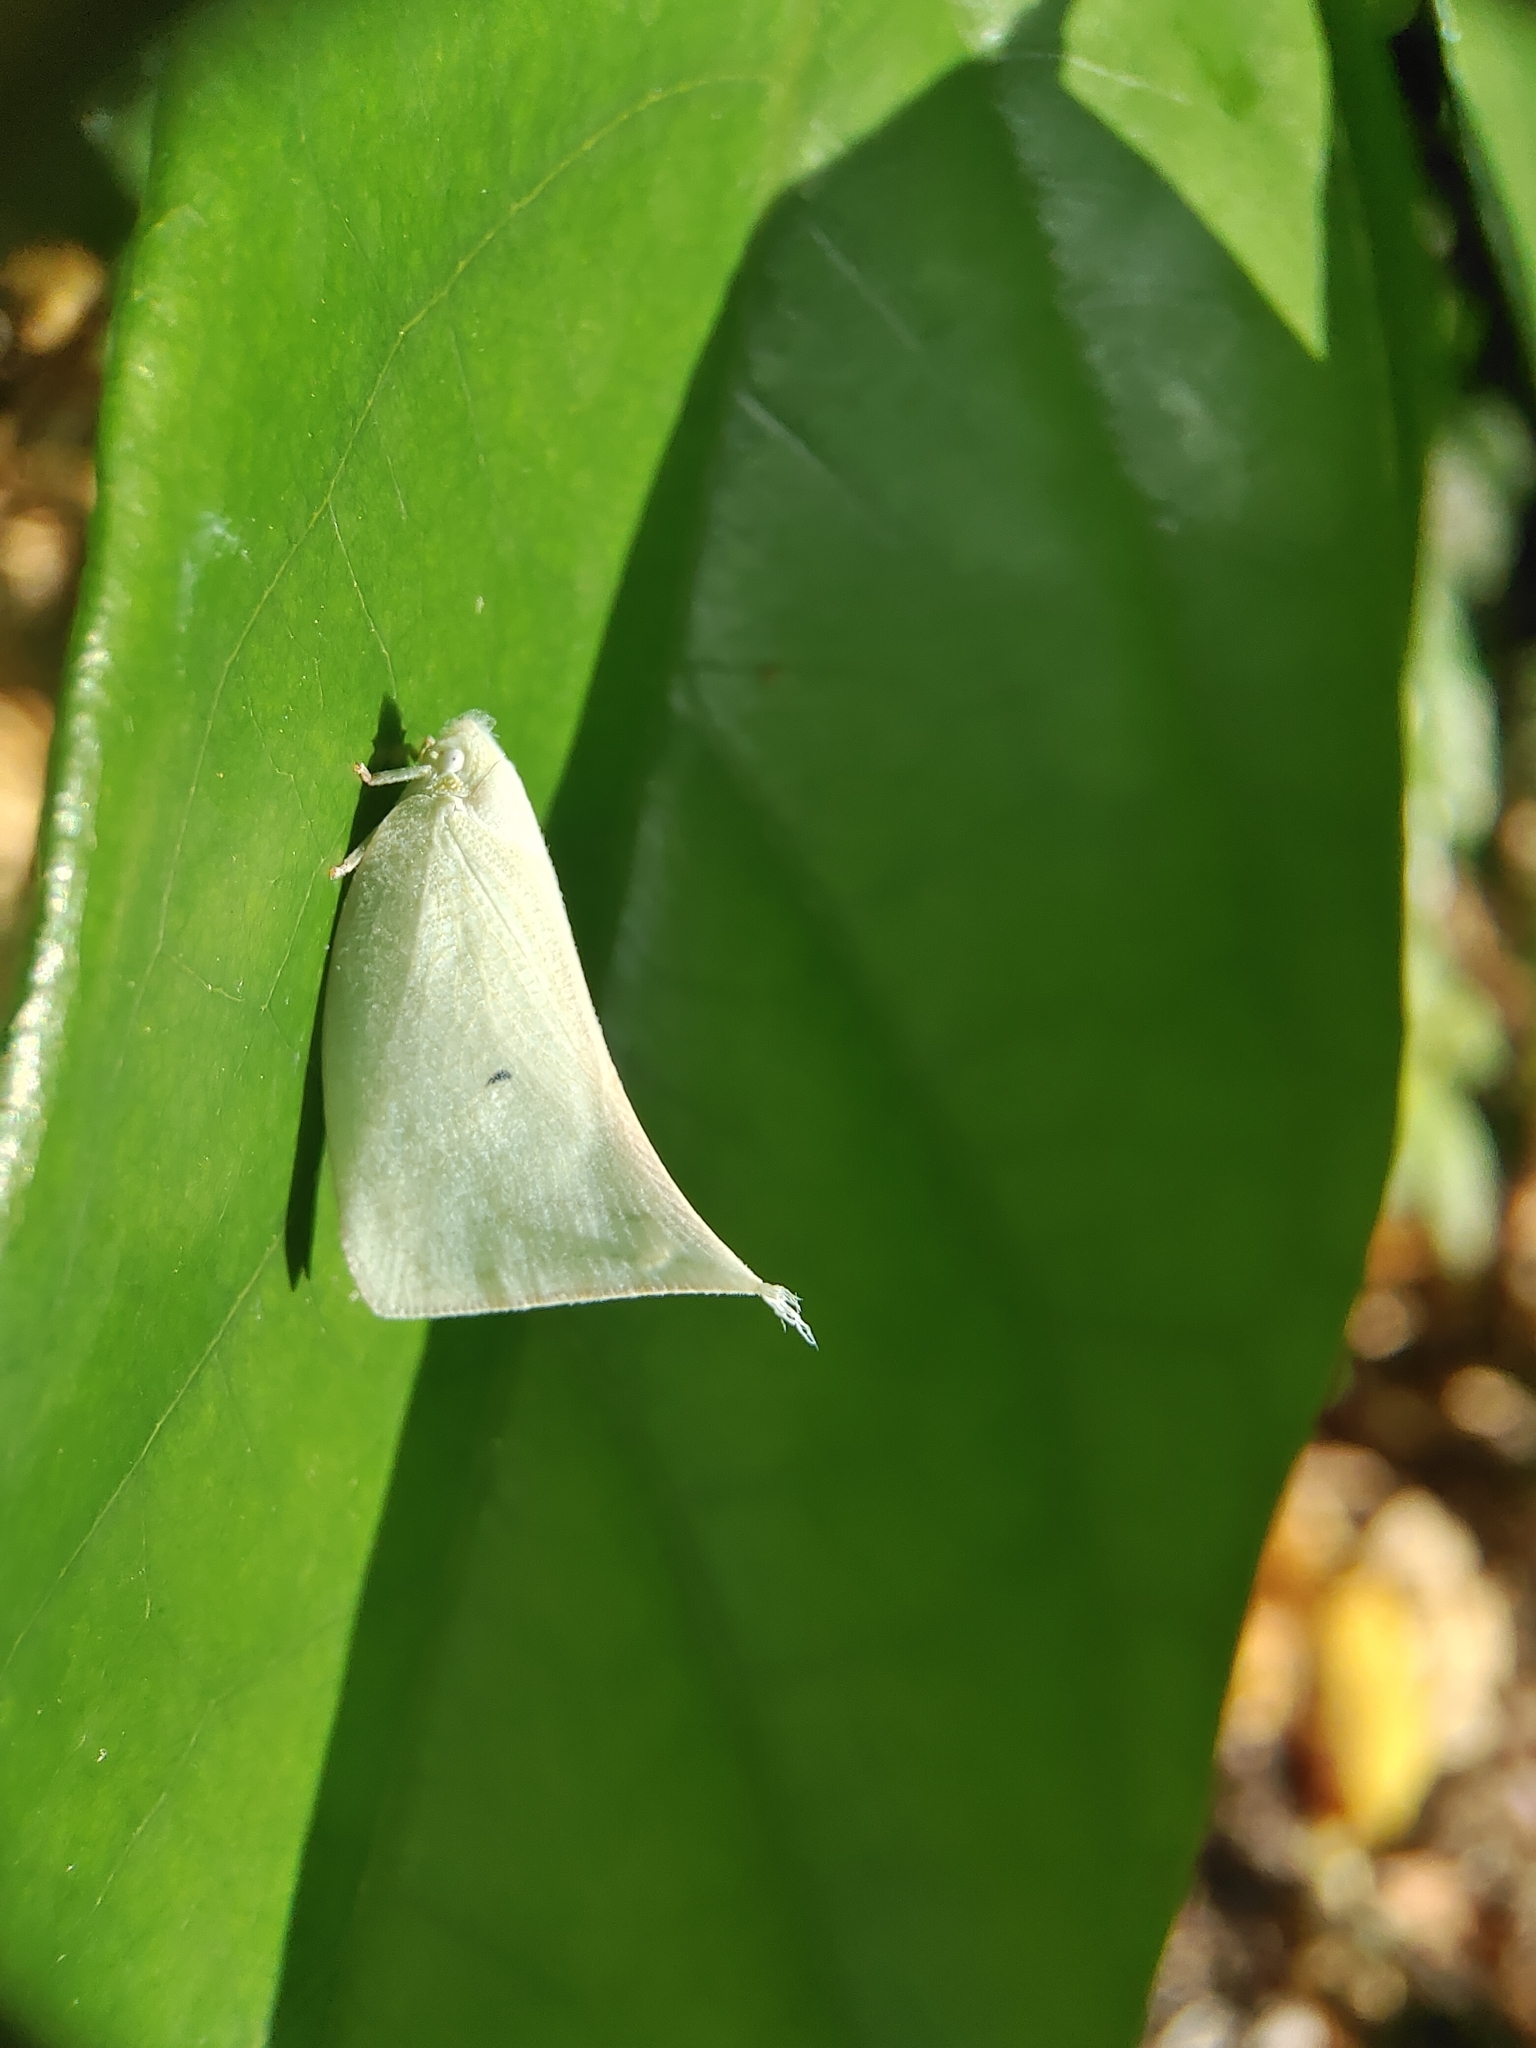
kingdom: Animalia
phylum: Arthropoda
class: Insecta
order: Hemiptera
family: Flatidae
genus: Lawana
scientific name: Lawana adscendens
